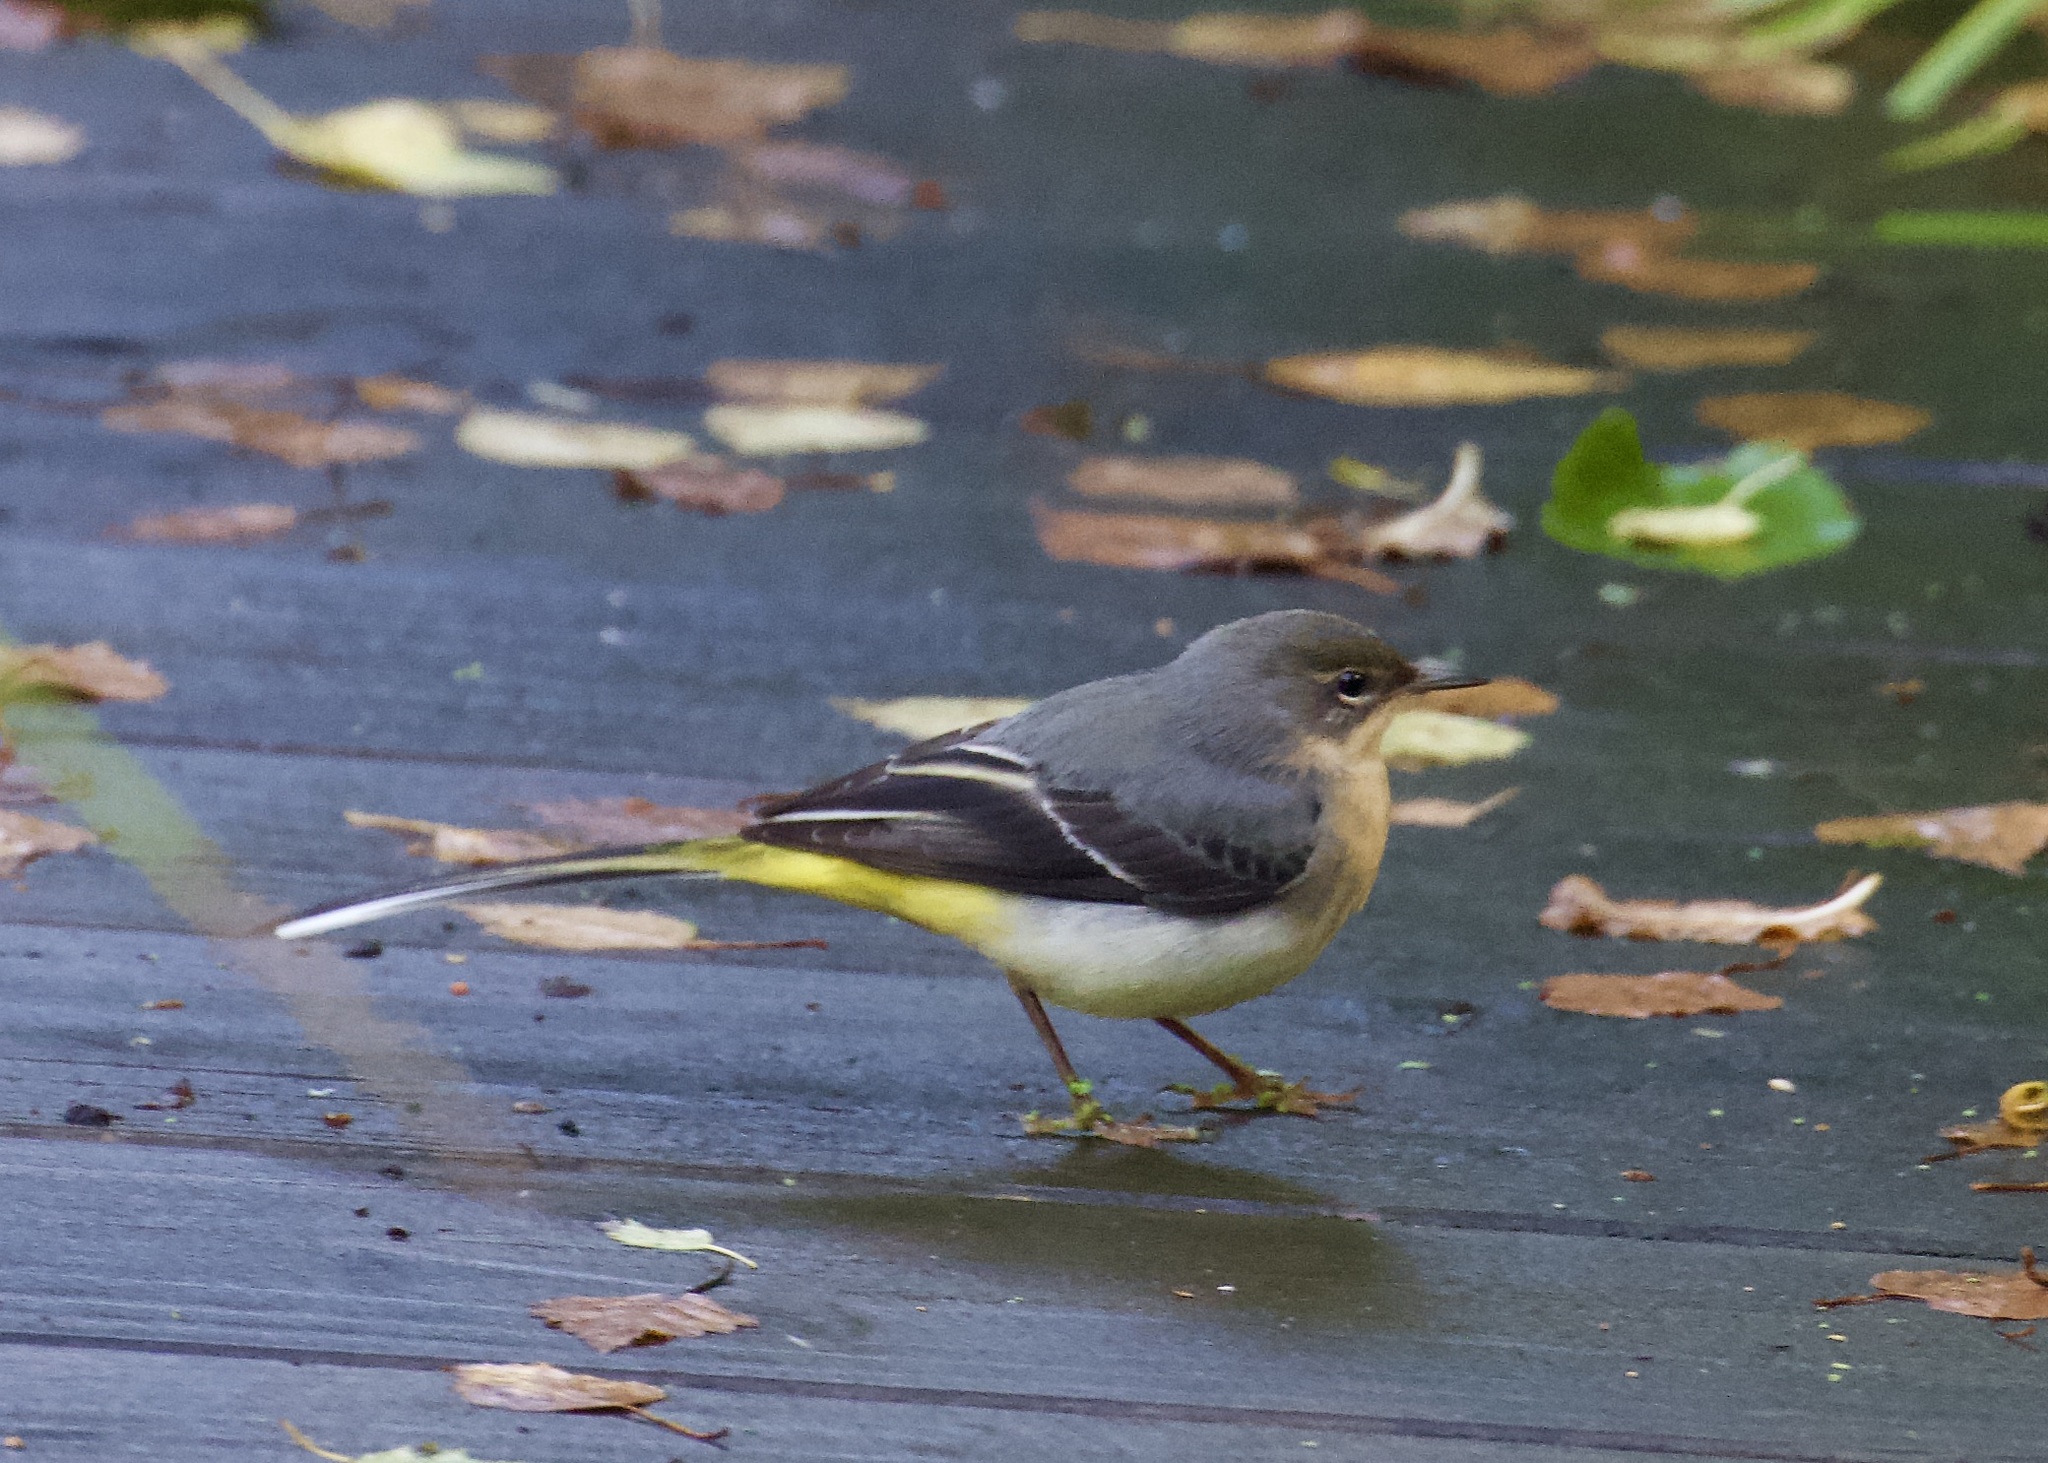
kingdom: Animalia
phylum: Chordata
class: Aves
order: Passeriformes
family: Motacillidae
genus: Motacilla
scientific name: Motacilla cinerea
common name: Grey wagtail
